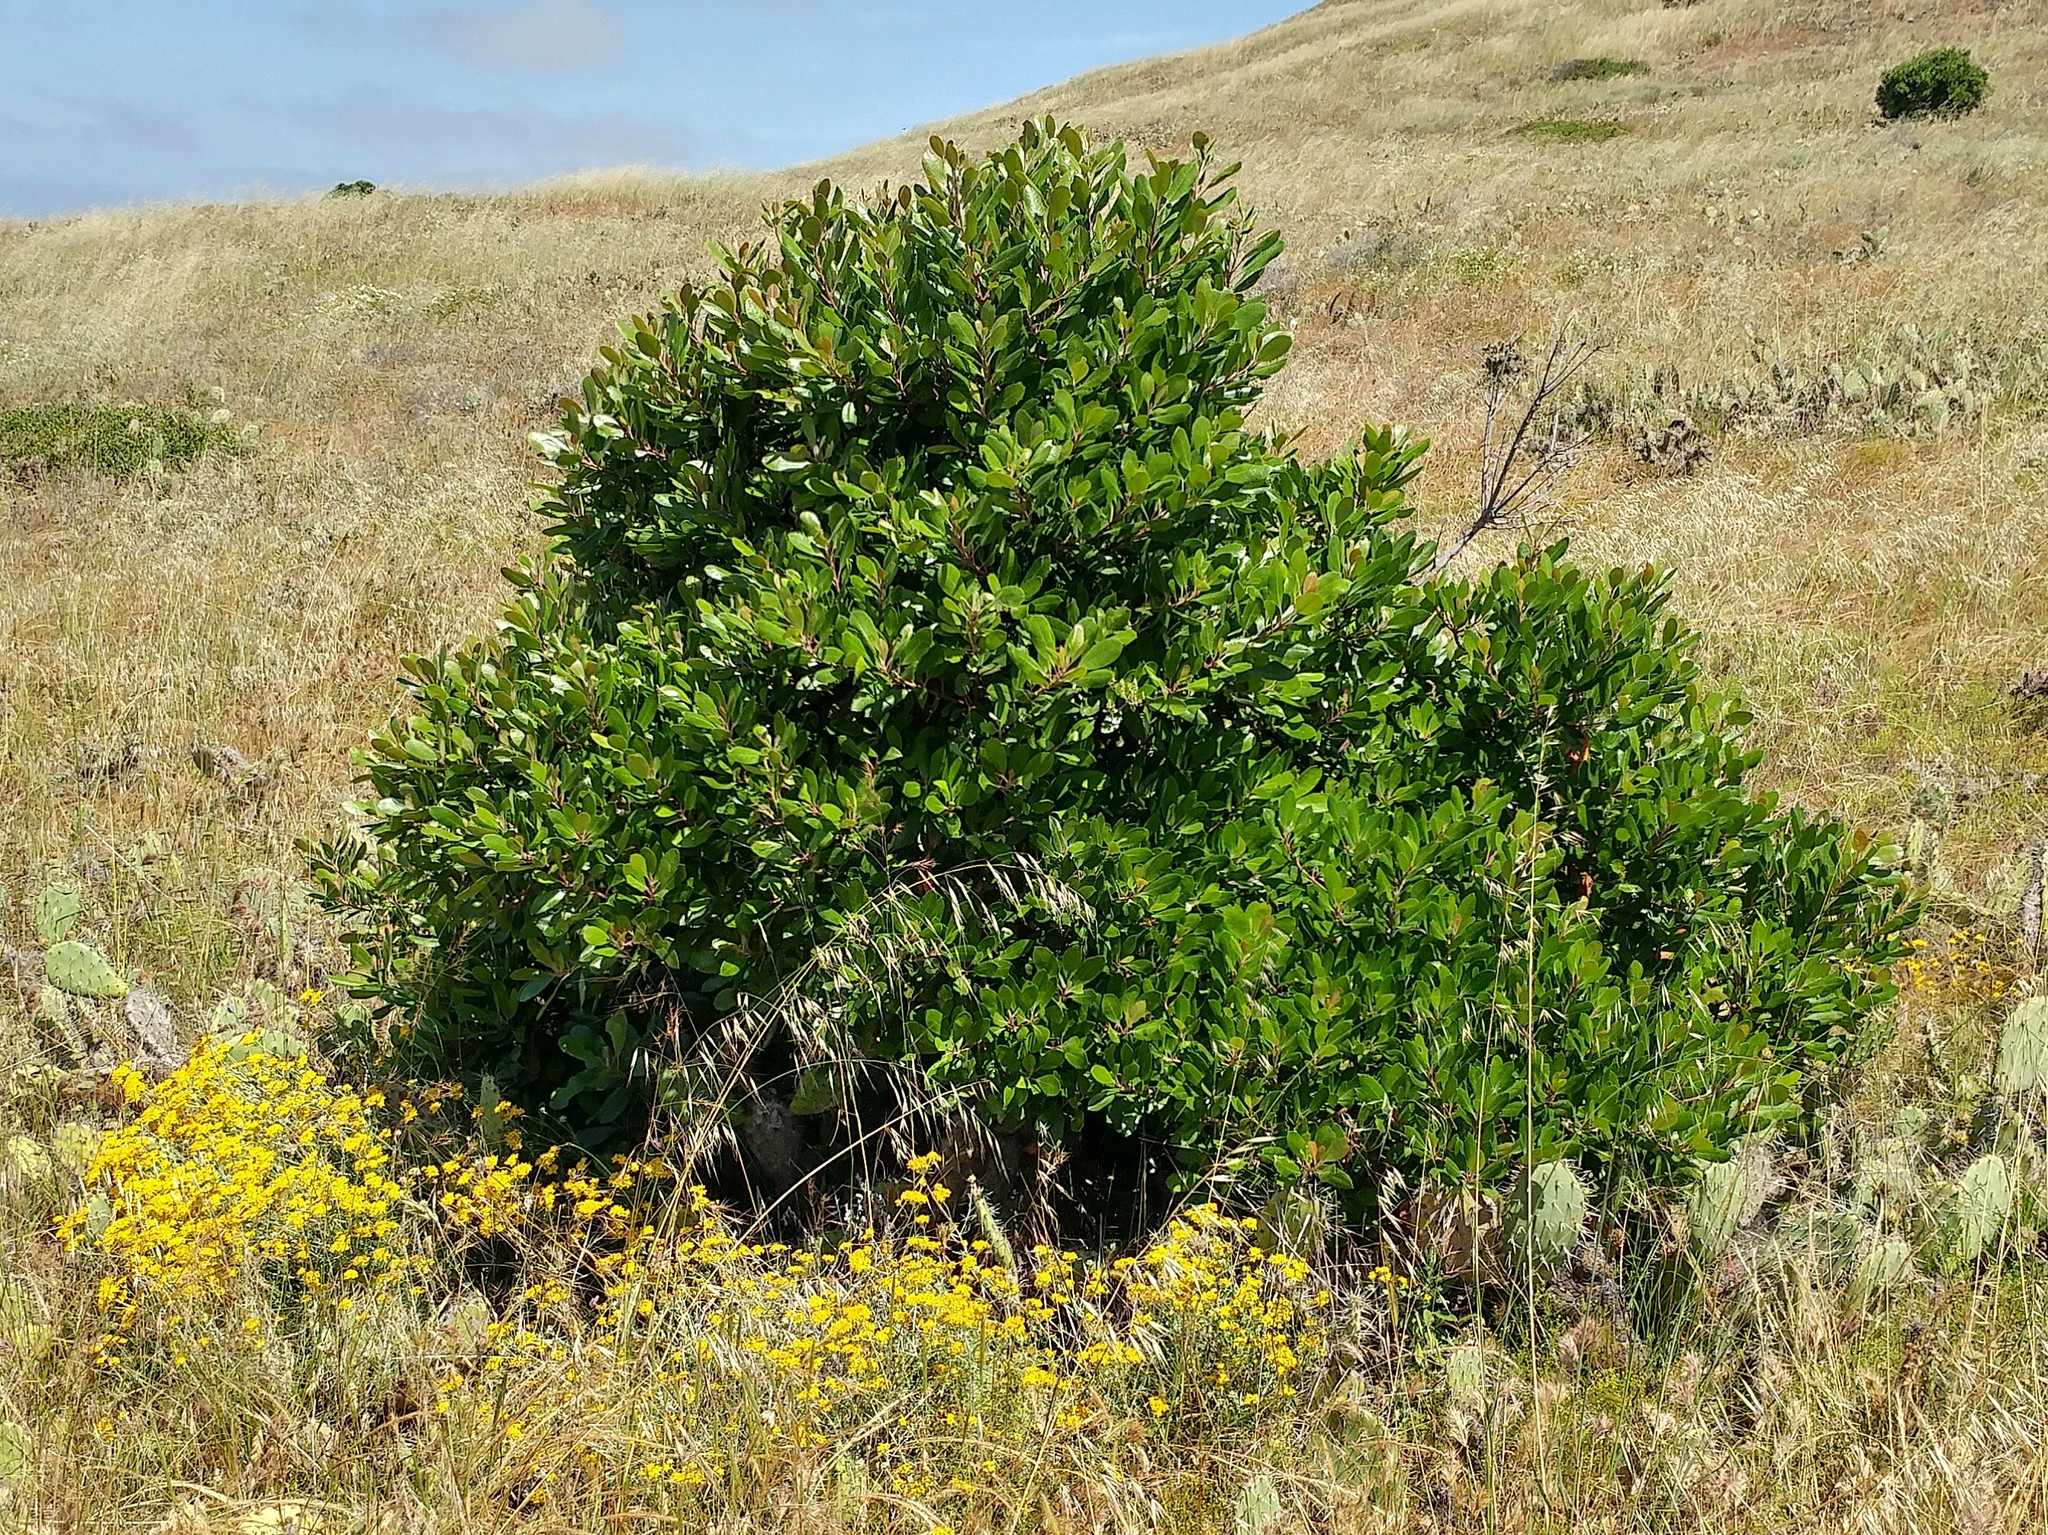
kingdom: Plantae
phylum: Tracheophyta
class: Magnoliopsida
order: Rosales
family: Rosaceae
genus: Heteromeles
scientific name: Heteromeles arbutifolia
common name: California-holly
